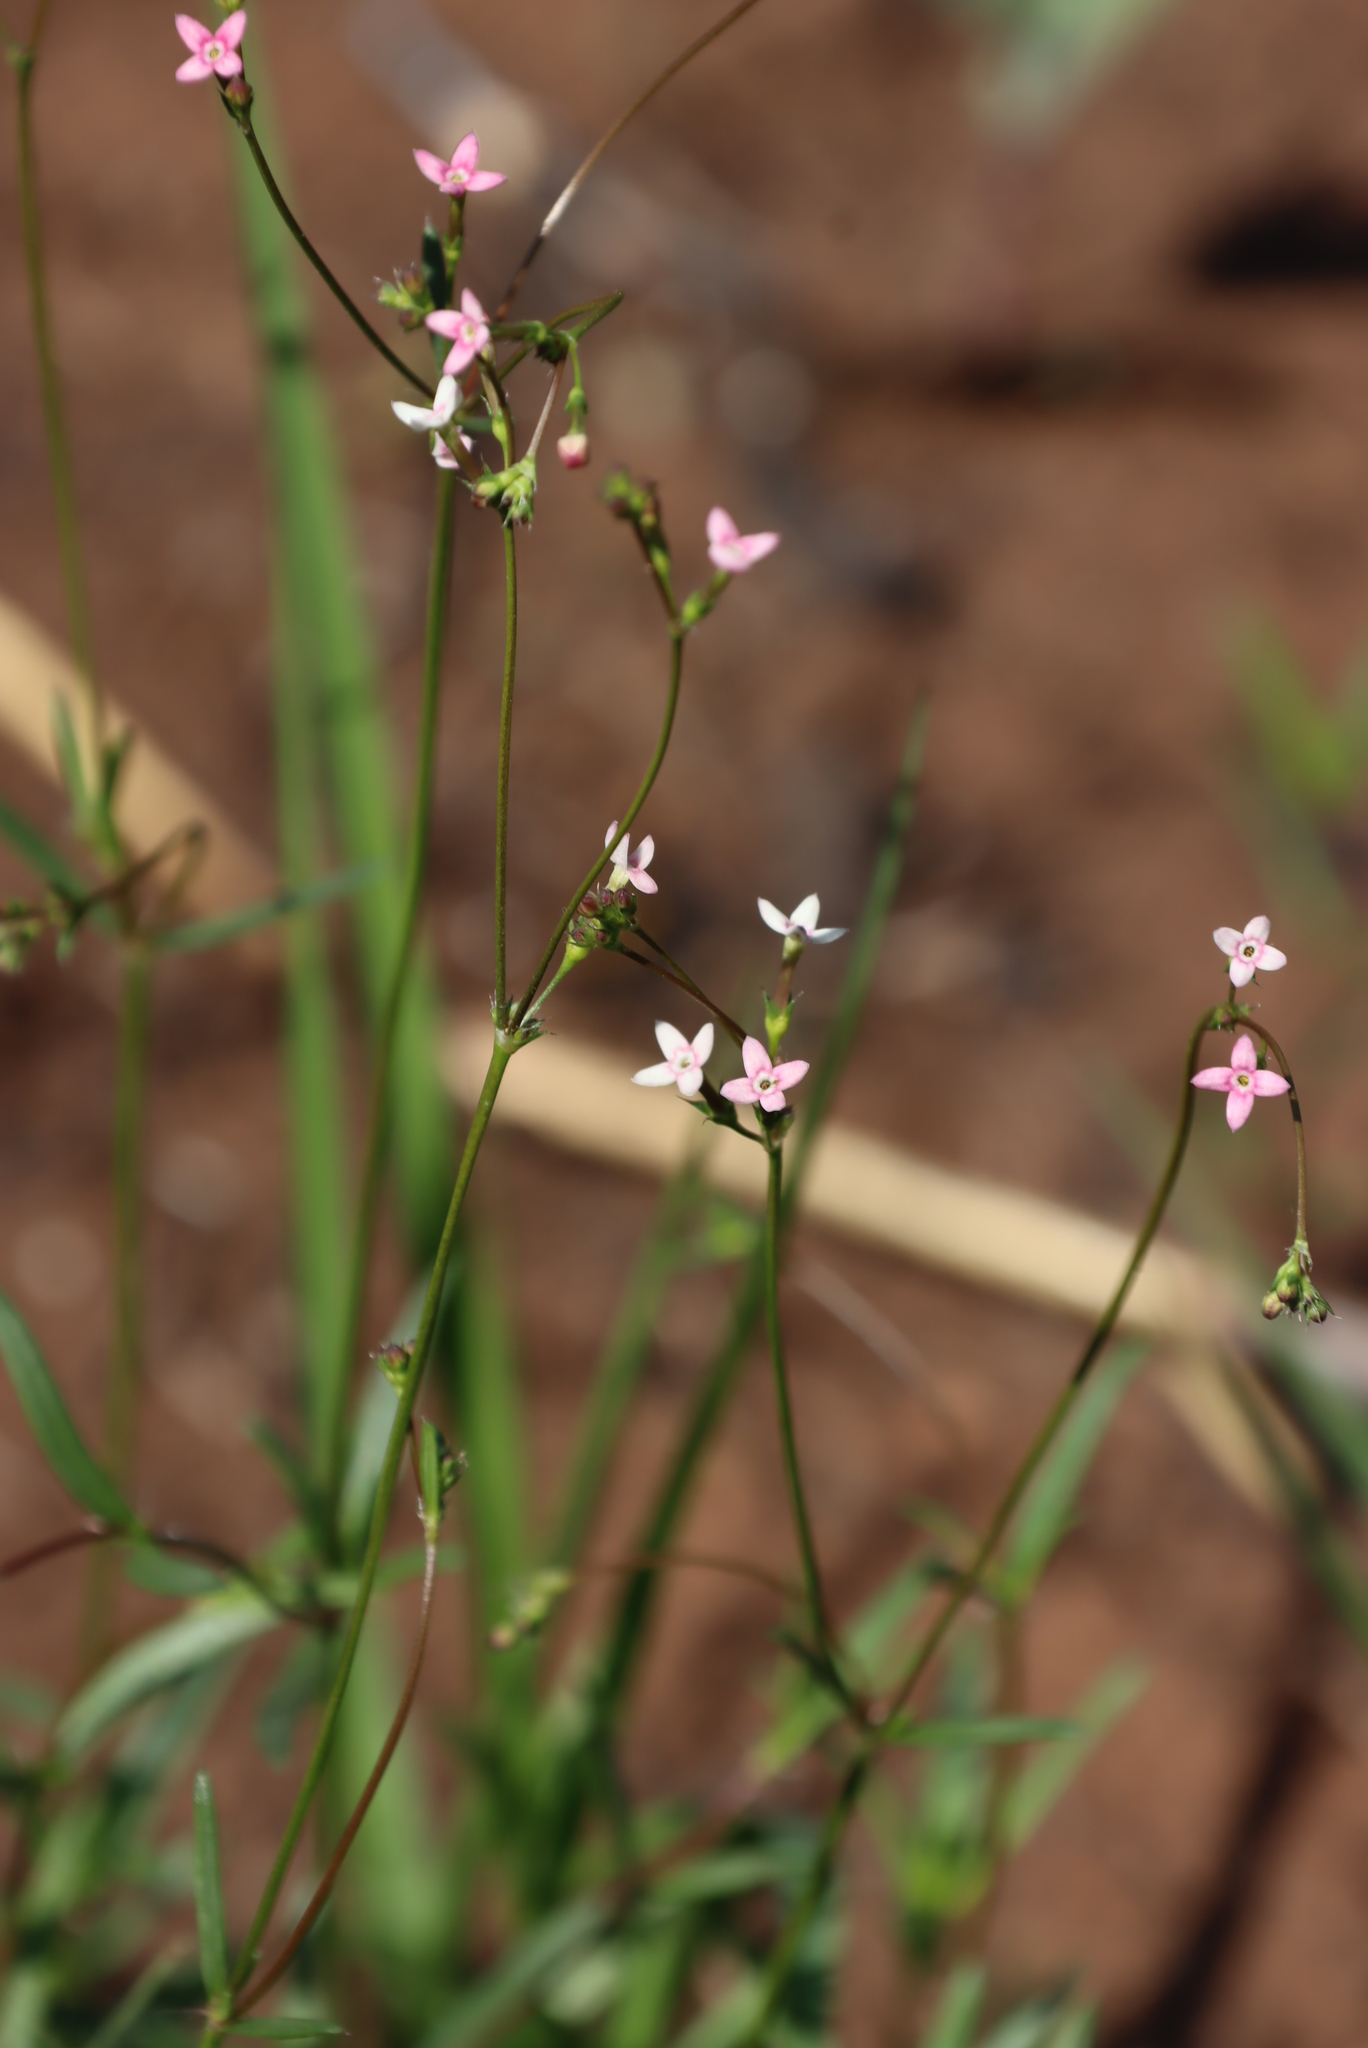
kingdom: Plantae
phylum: Tracheophyta
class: Magnoliopsida
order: Gentianales
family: Rubiaceae
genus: Cordylostigma
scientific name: Cordylostigma virgatum
